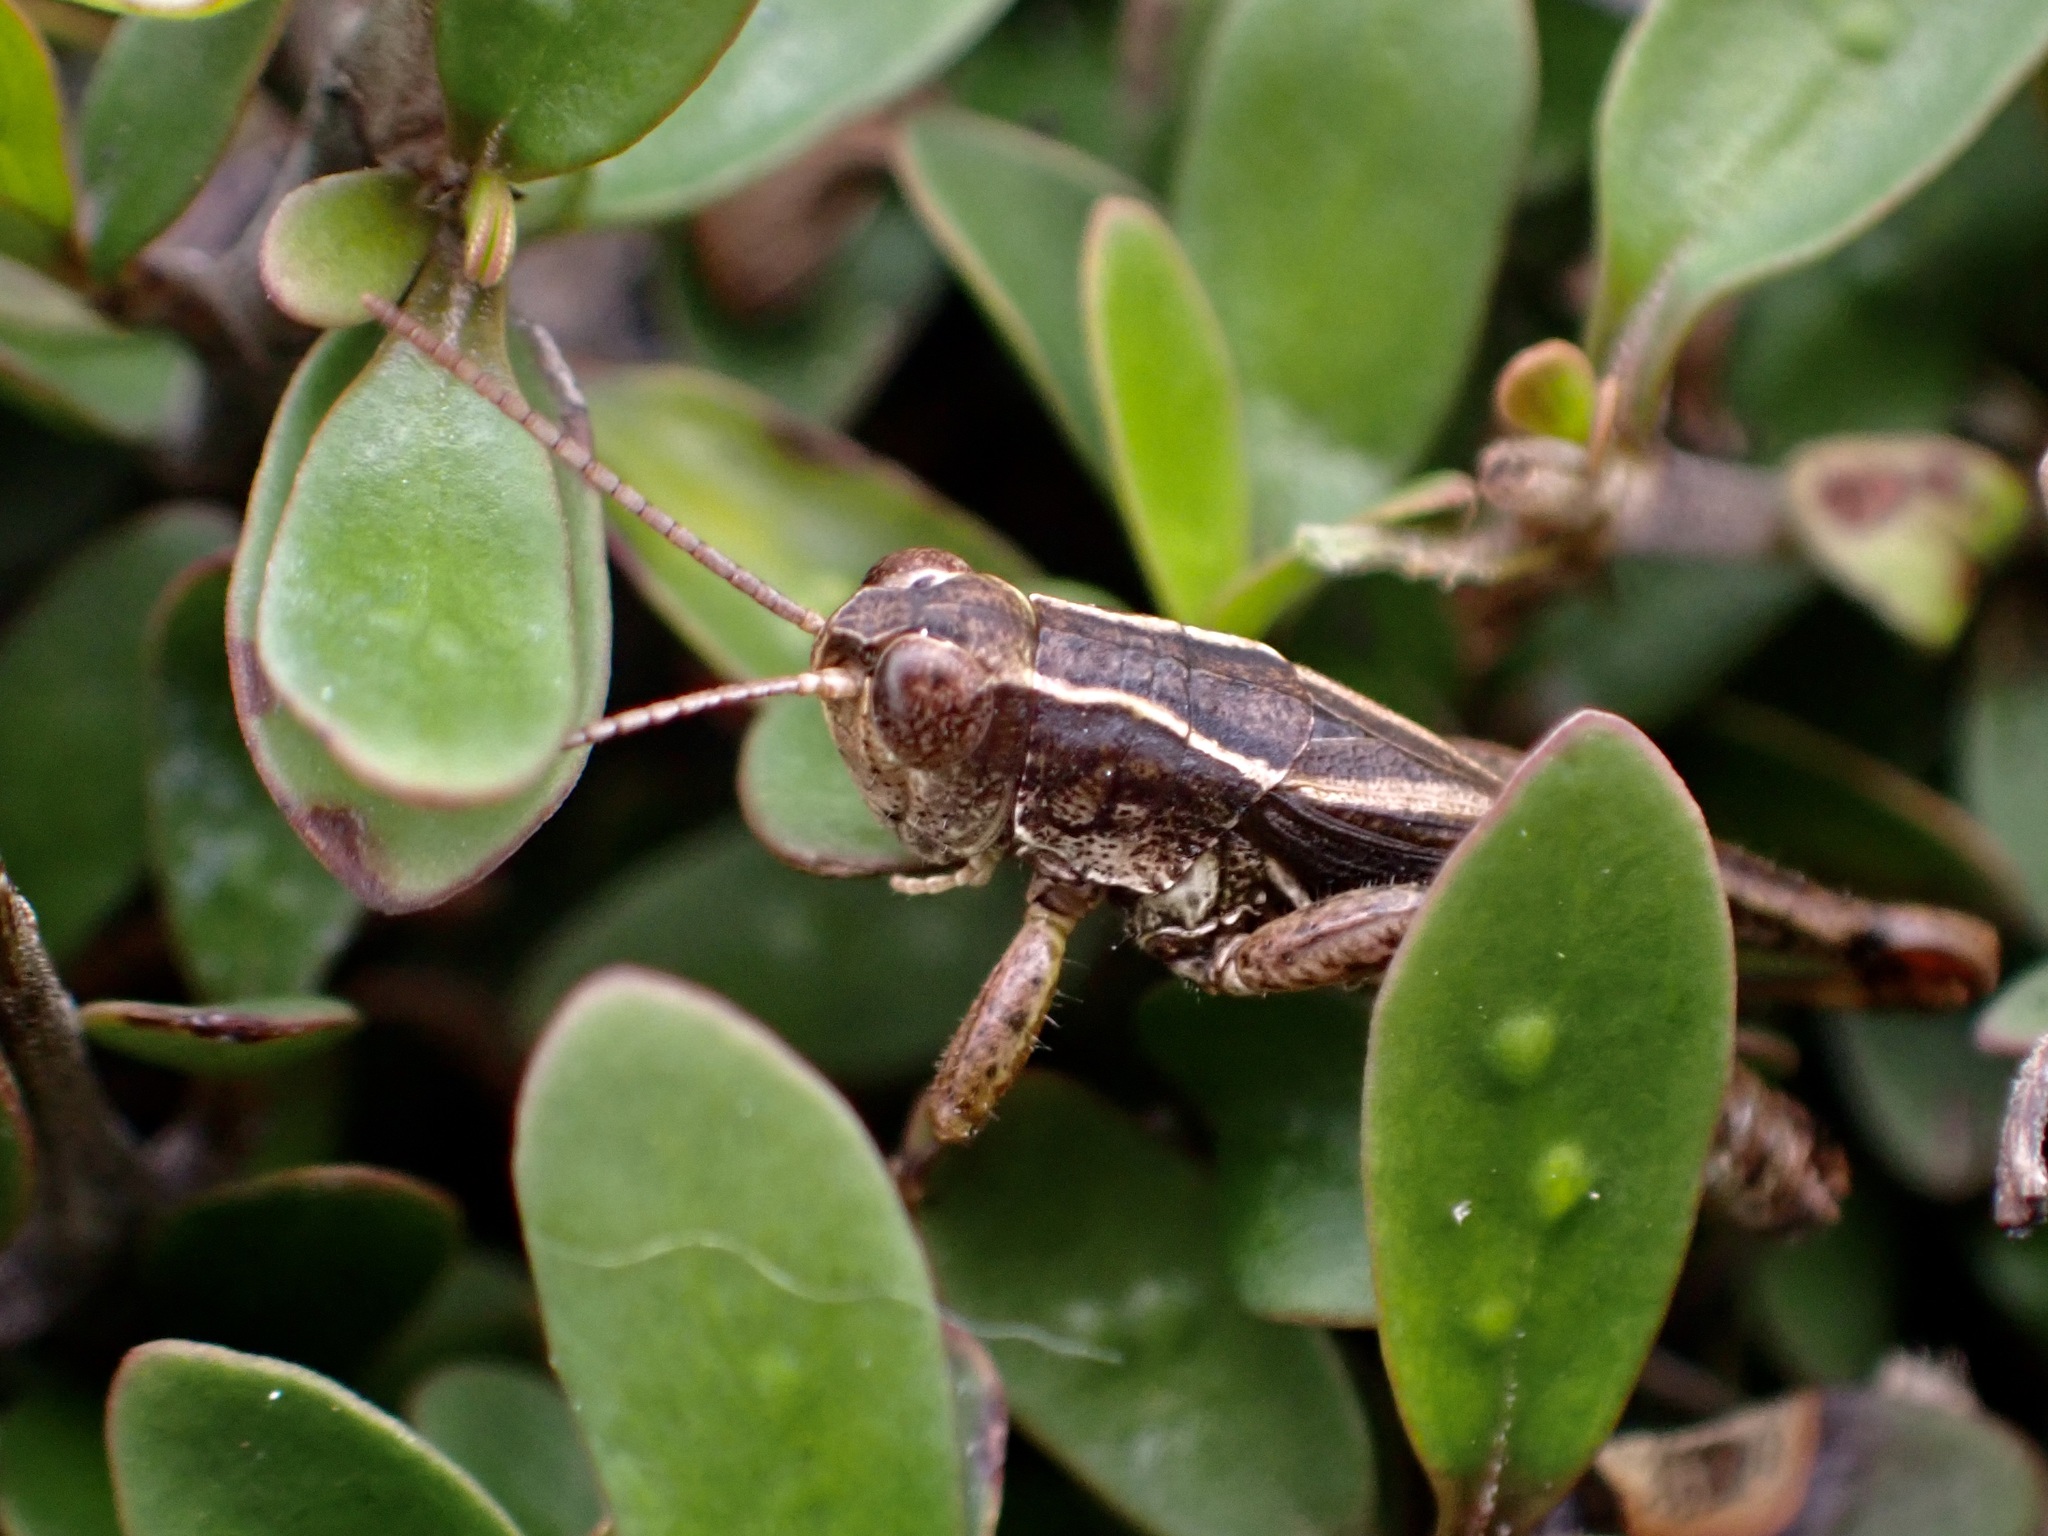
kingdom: Animalia
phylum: Arthropoda
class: Insecta
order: Orthoptera
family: Acrididae
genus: Phaulacridium
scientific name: Phaulacridium marginale
